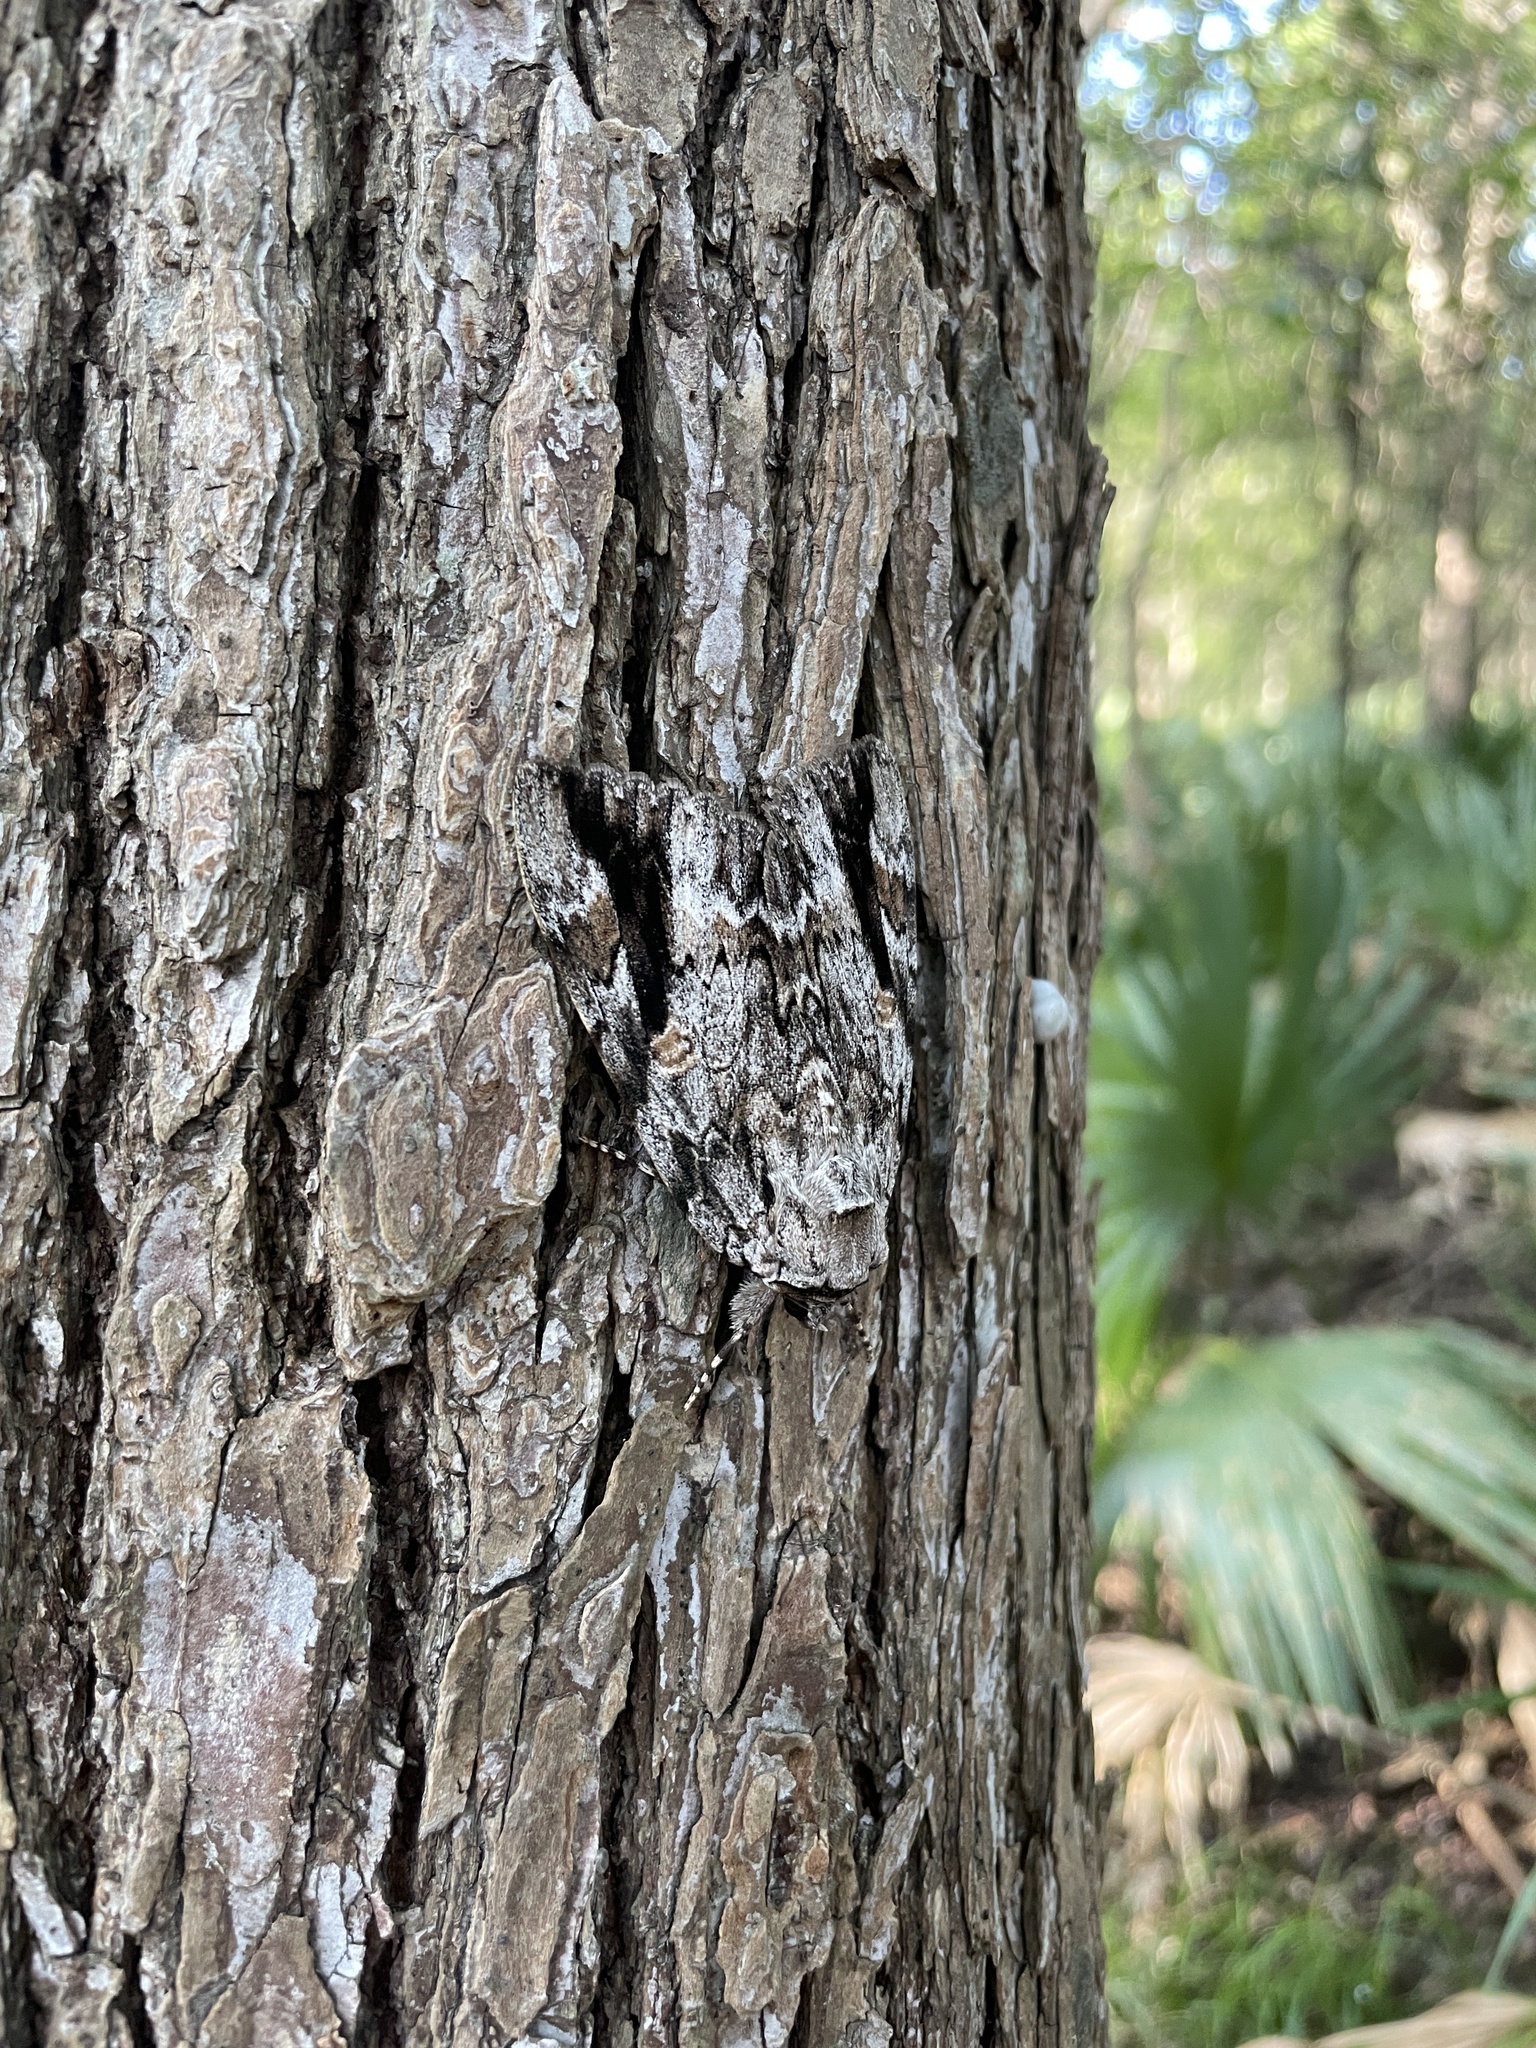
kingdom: Animalia
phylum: Arthropoda
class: Insecta
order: Lepidoptera
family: Erebidae
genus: Catocala
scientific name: Catocala maestosa
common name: Sad underwing
